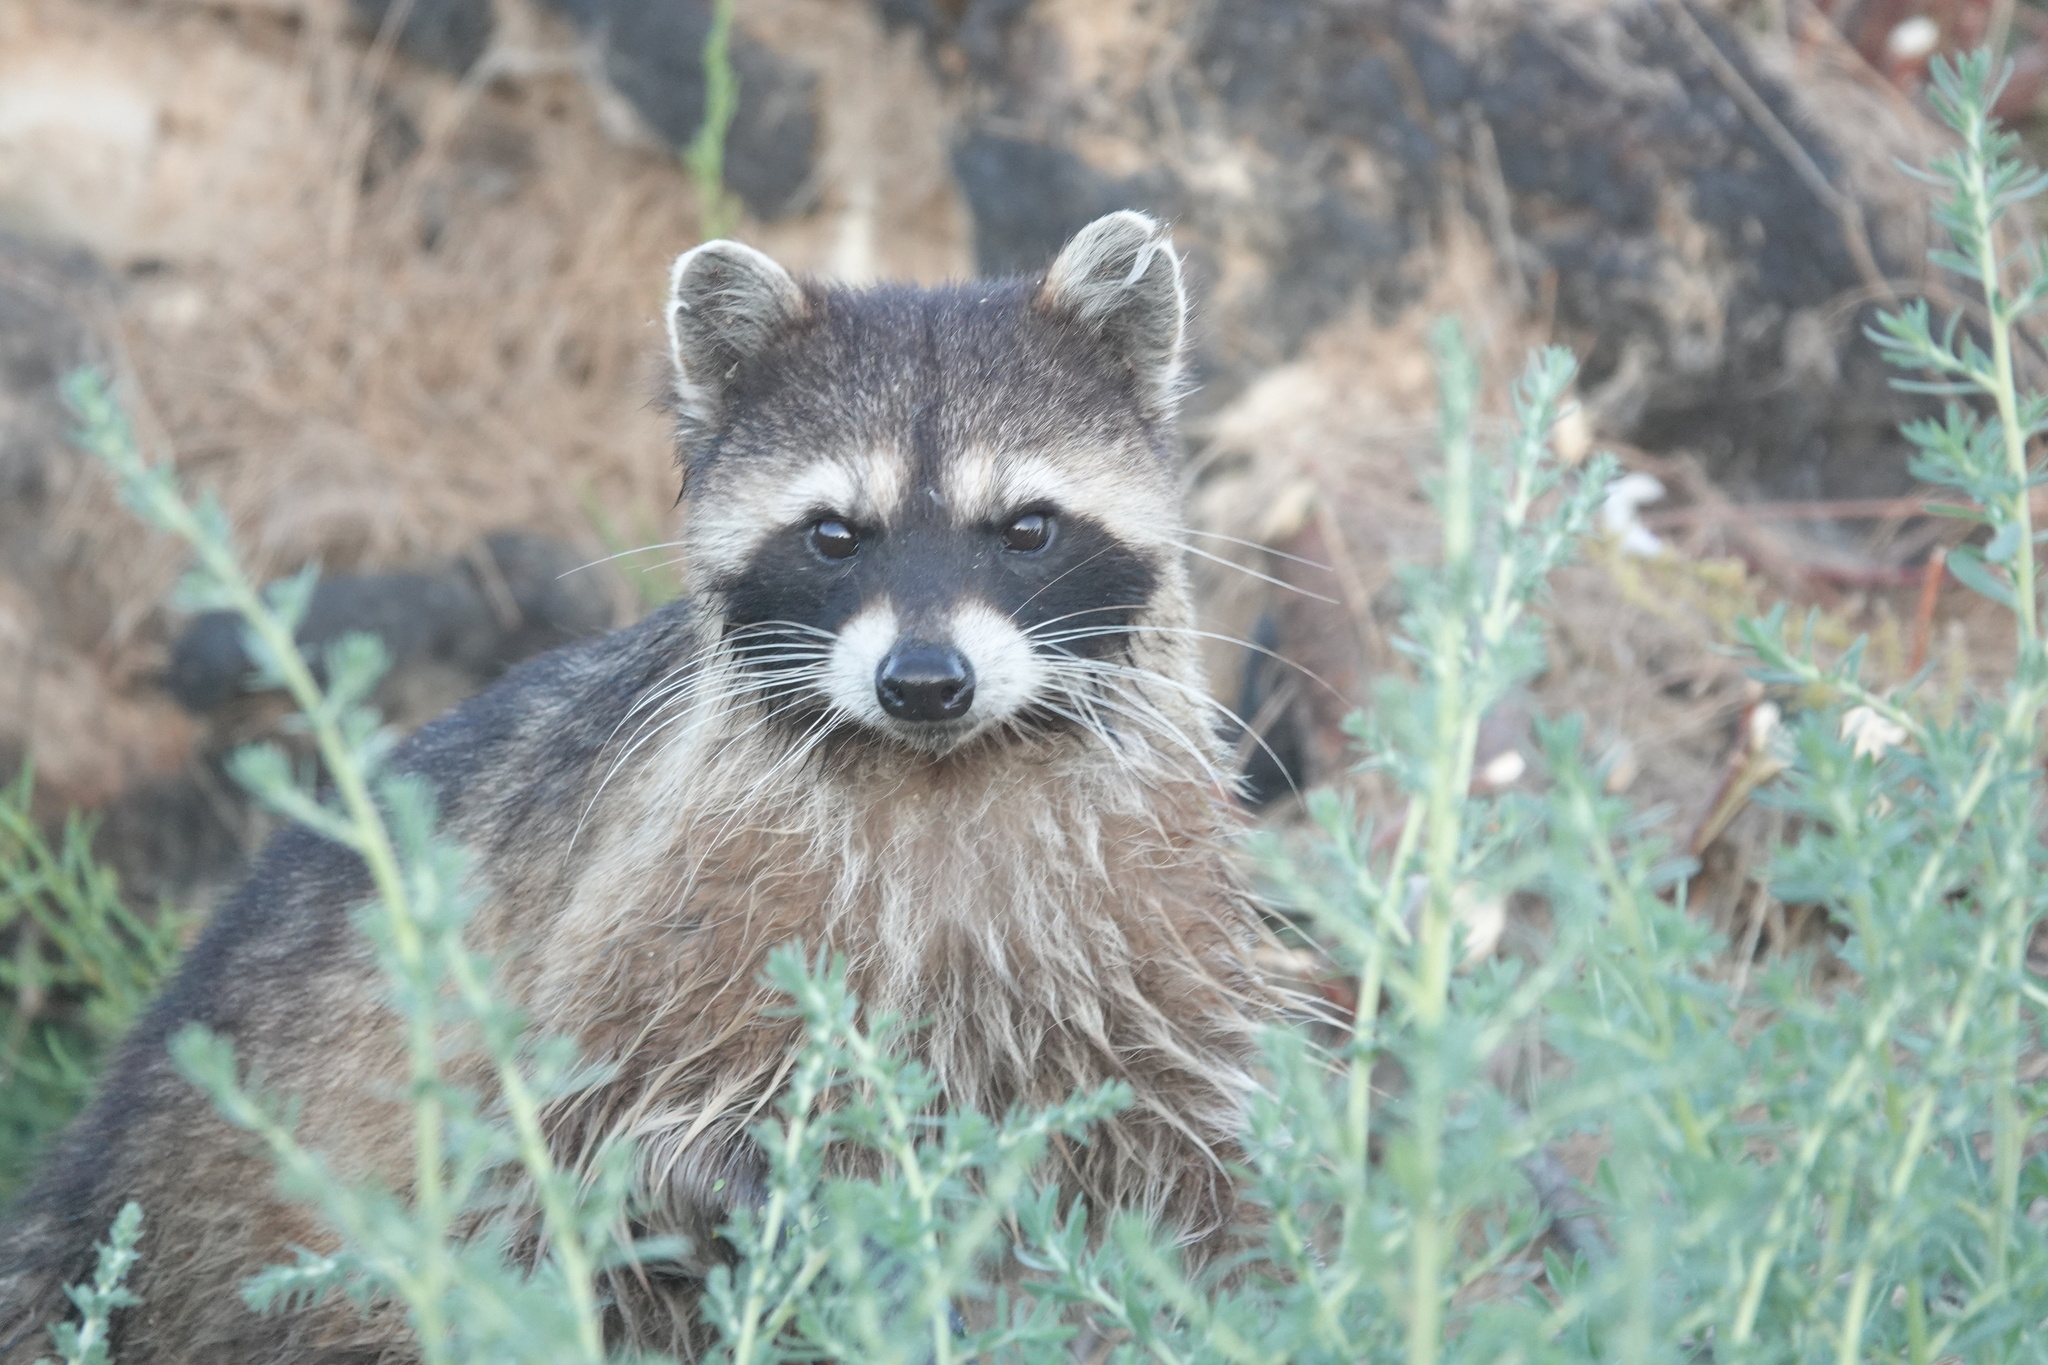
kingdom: Animalia
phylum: Chordata
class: Mammalia
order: Carnivora
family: Procyonidae
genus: Procyon
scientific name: Procyon lotor
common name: Raccoon
